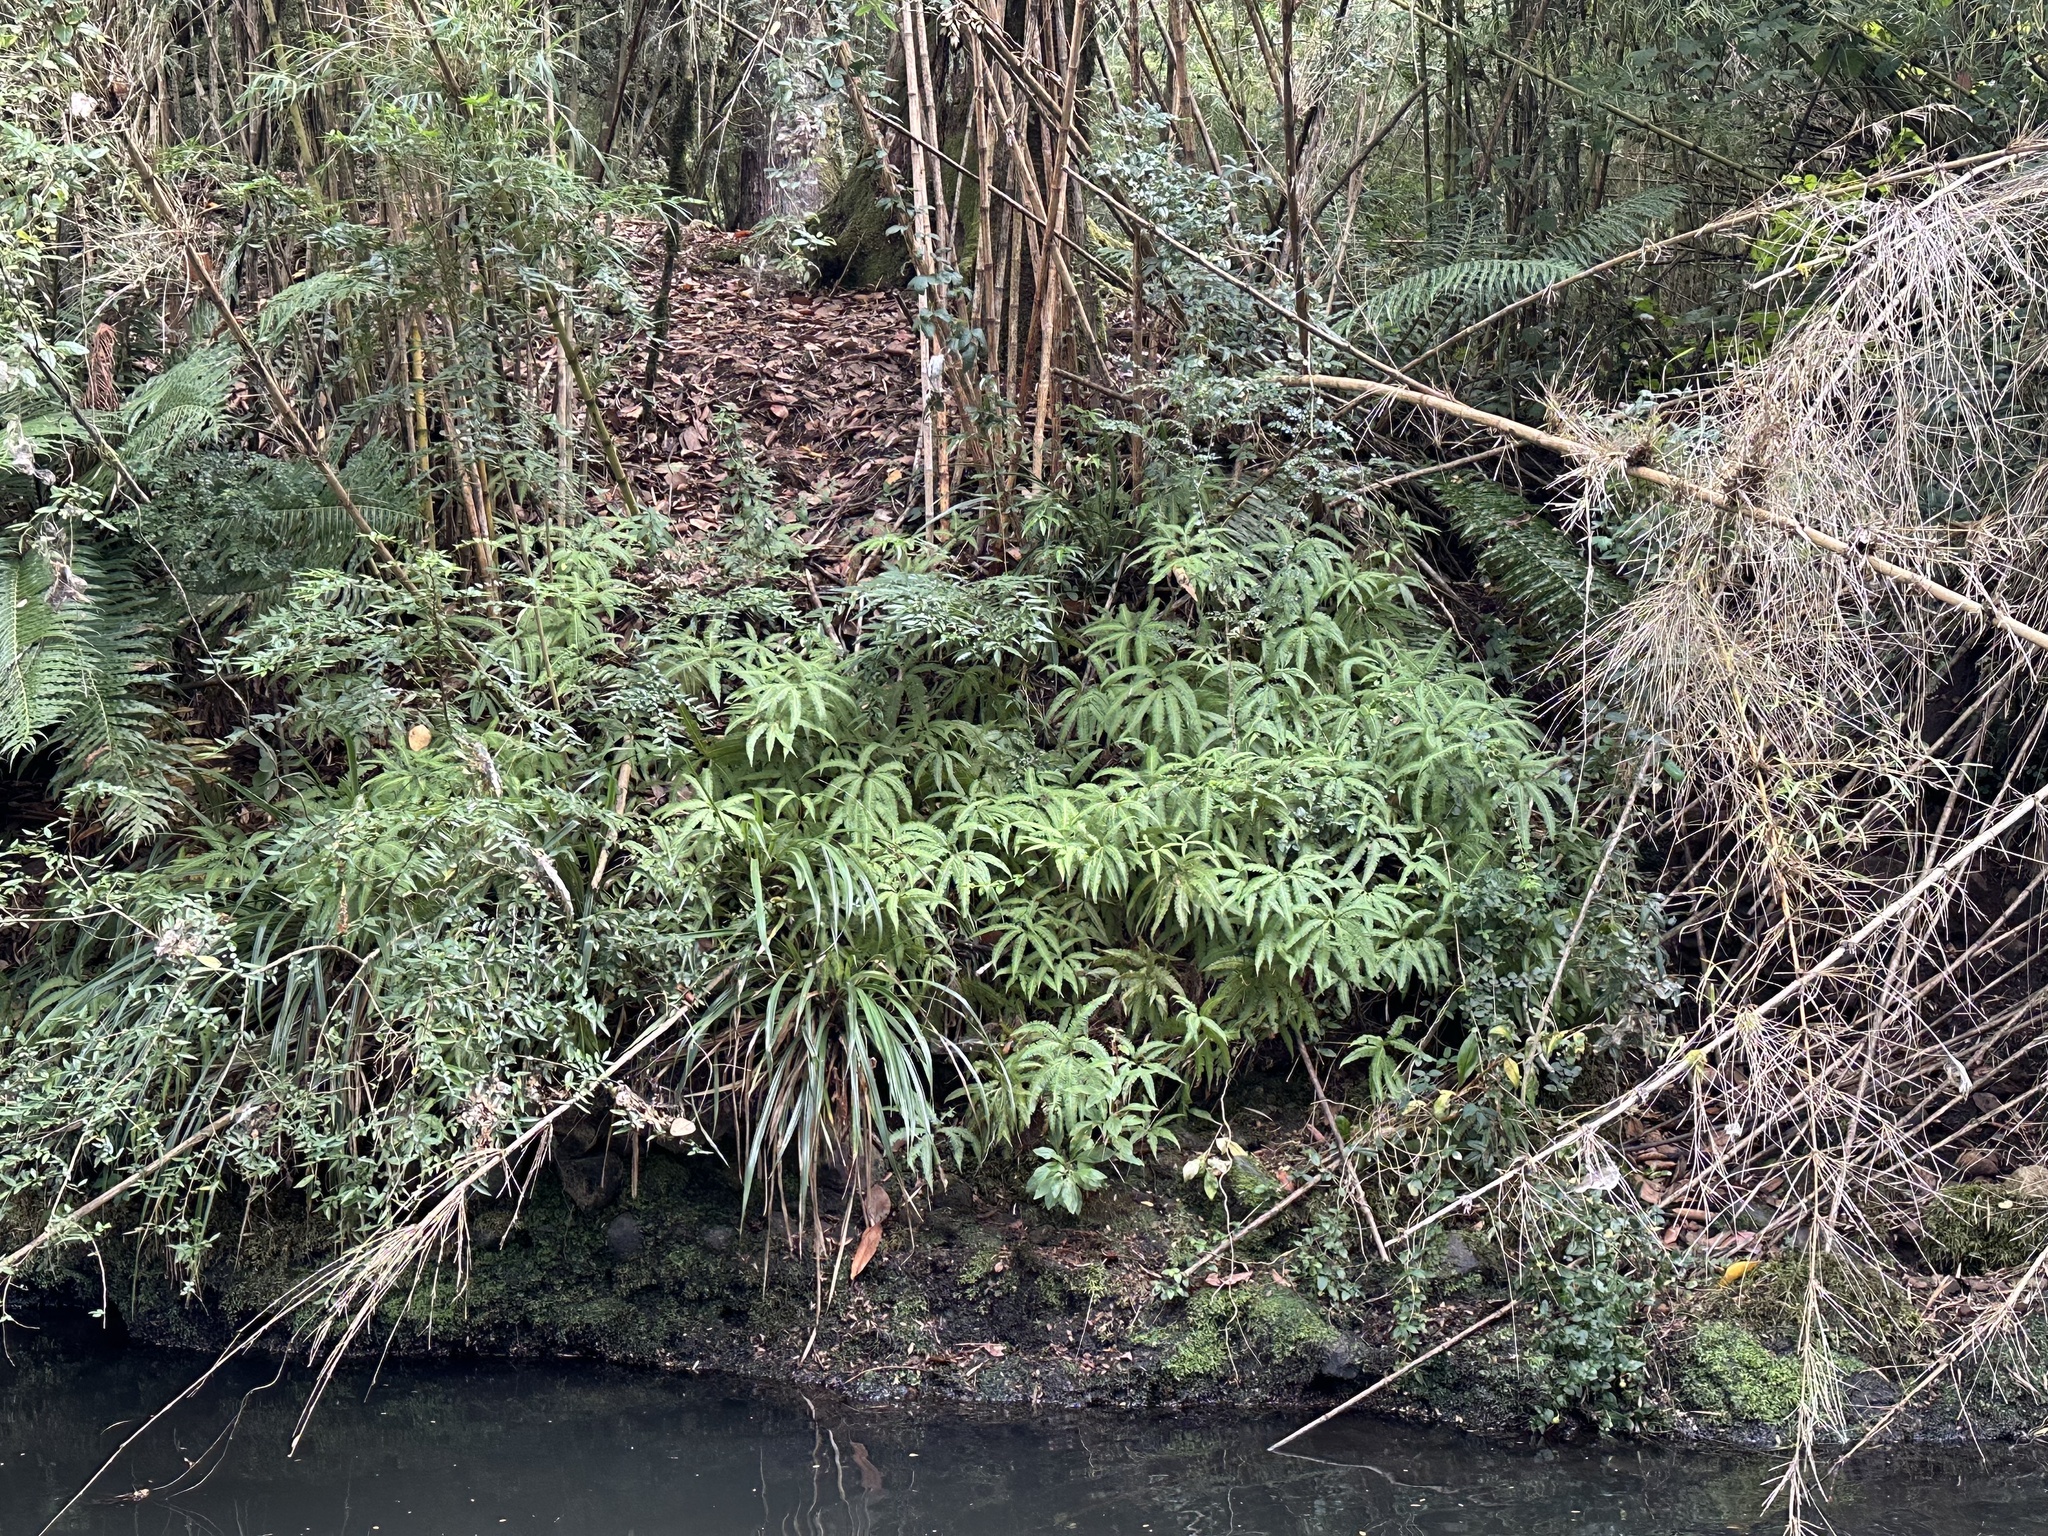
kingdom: Plantae
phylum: Tracheophyta
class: Polypodiopsida
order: Gleicheniales
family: Gleicheniaceae
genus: Sticherus
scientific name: Sticherus quadripartitus
